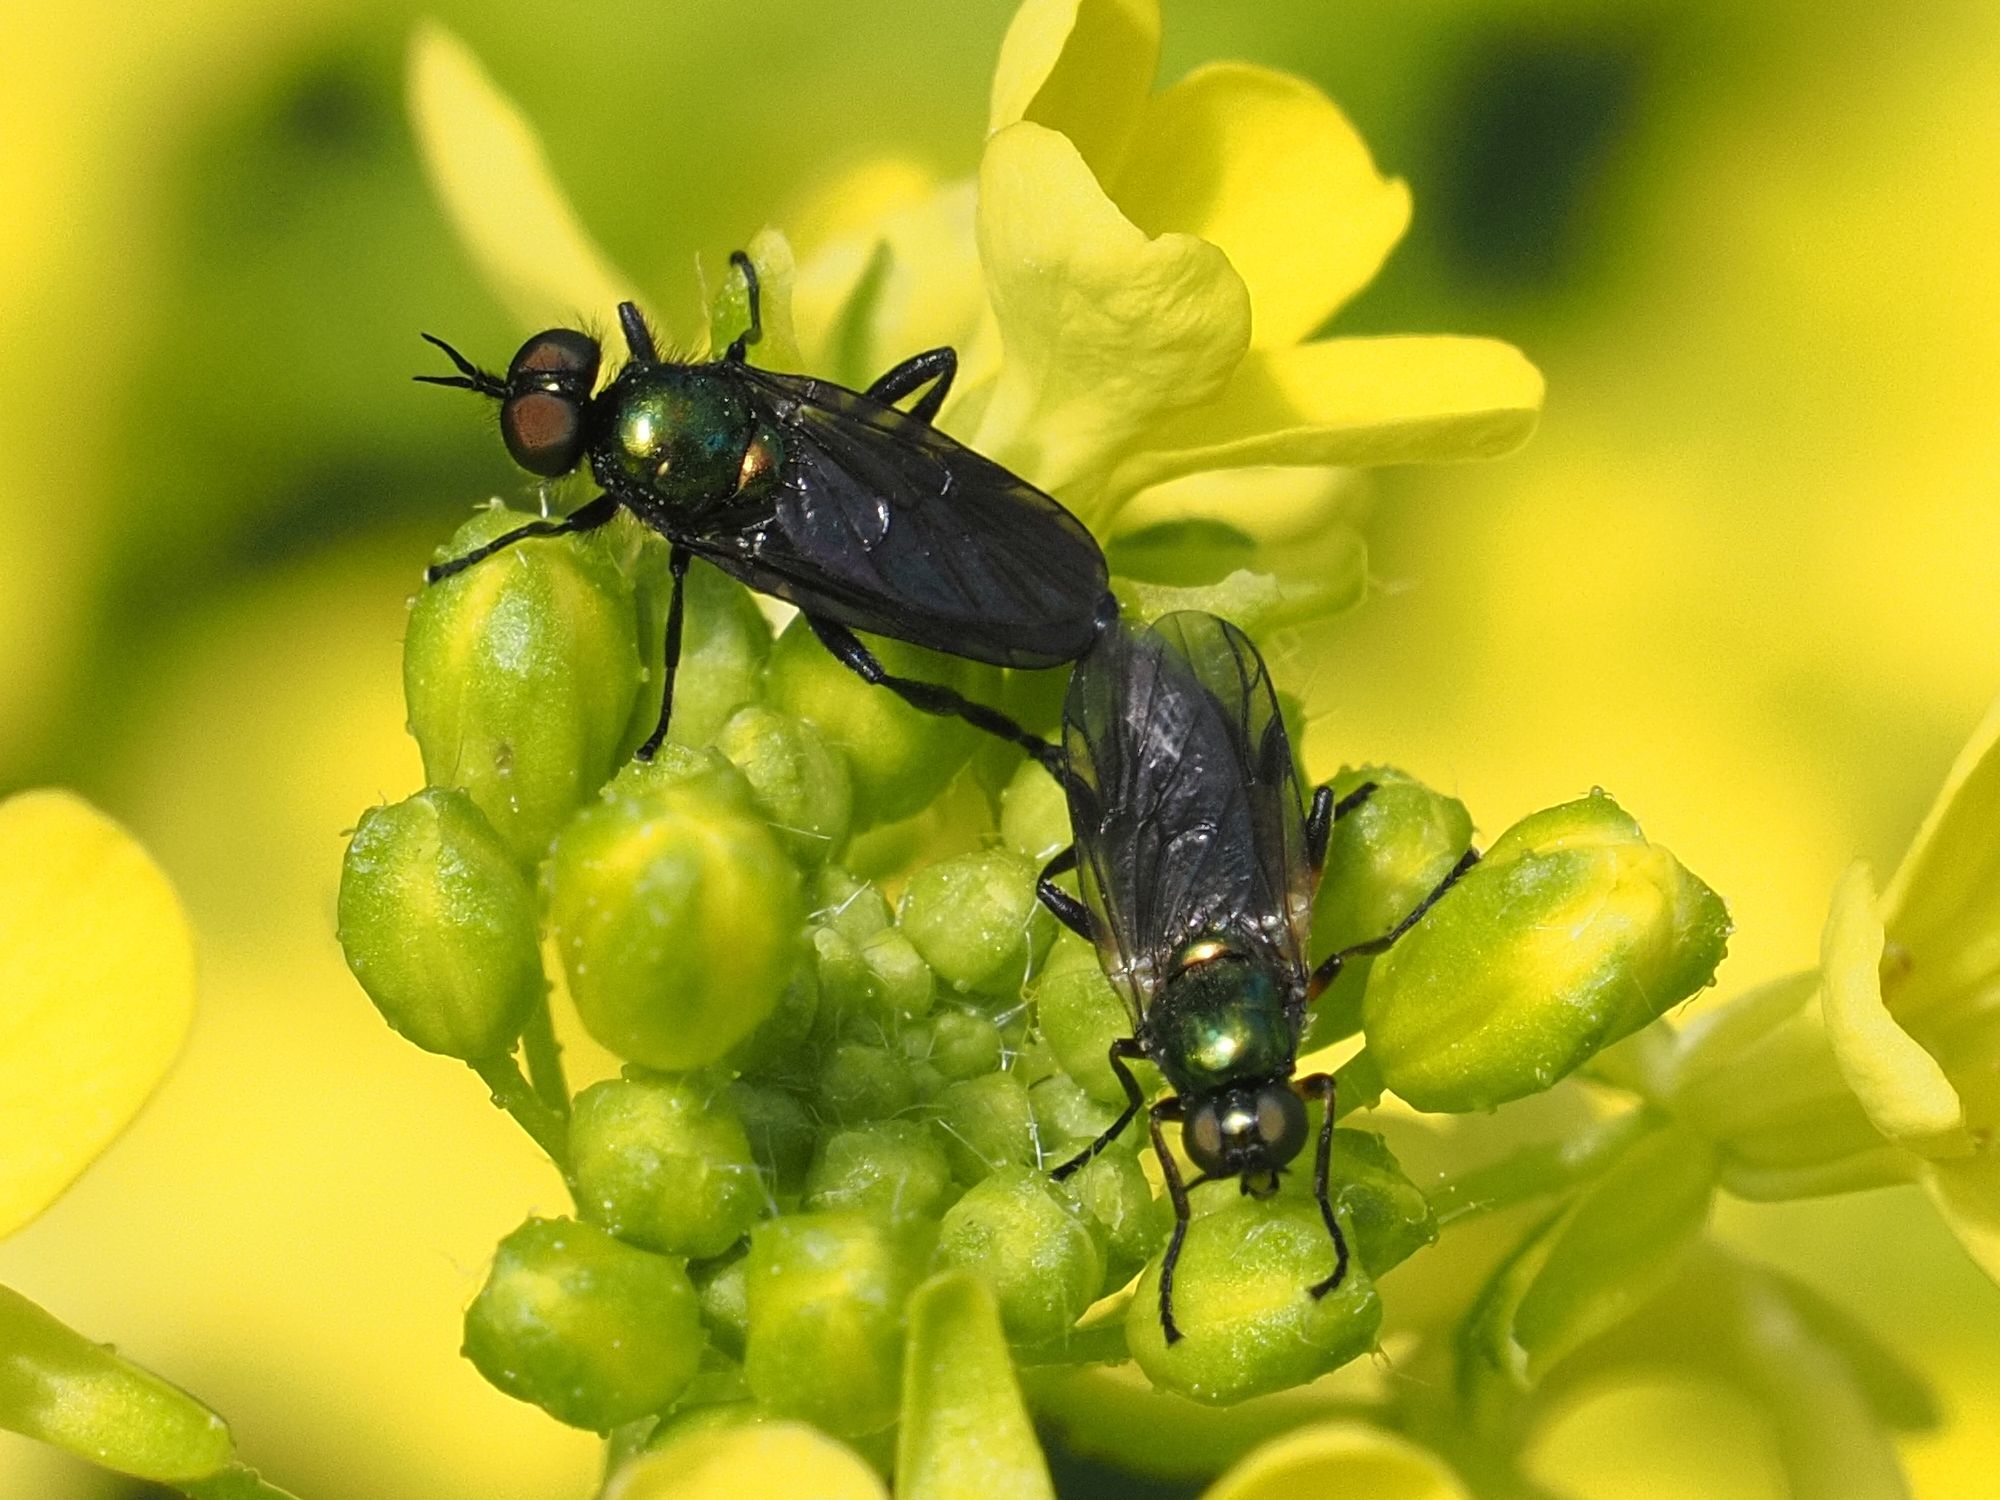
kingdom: Animalia
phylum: Arthropoda
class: Insecta
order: Diptera
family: Stratiomyidae
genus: Actina
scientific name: Actina chalybea
